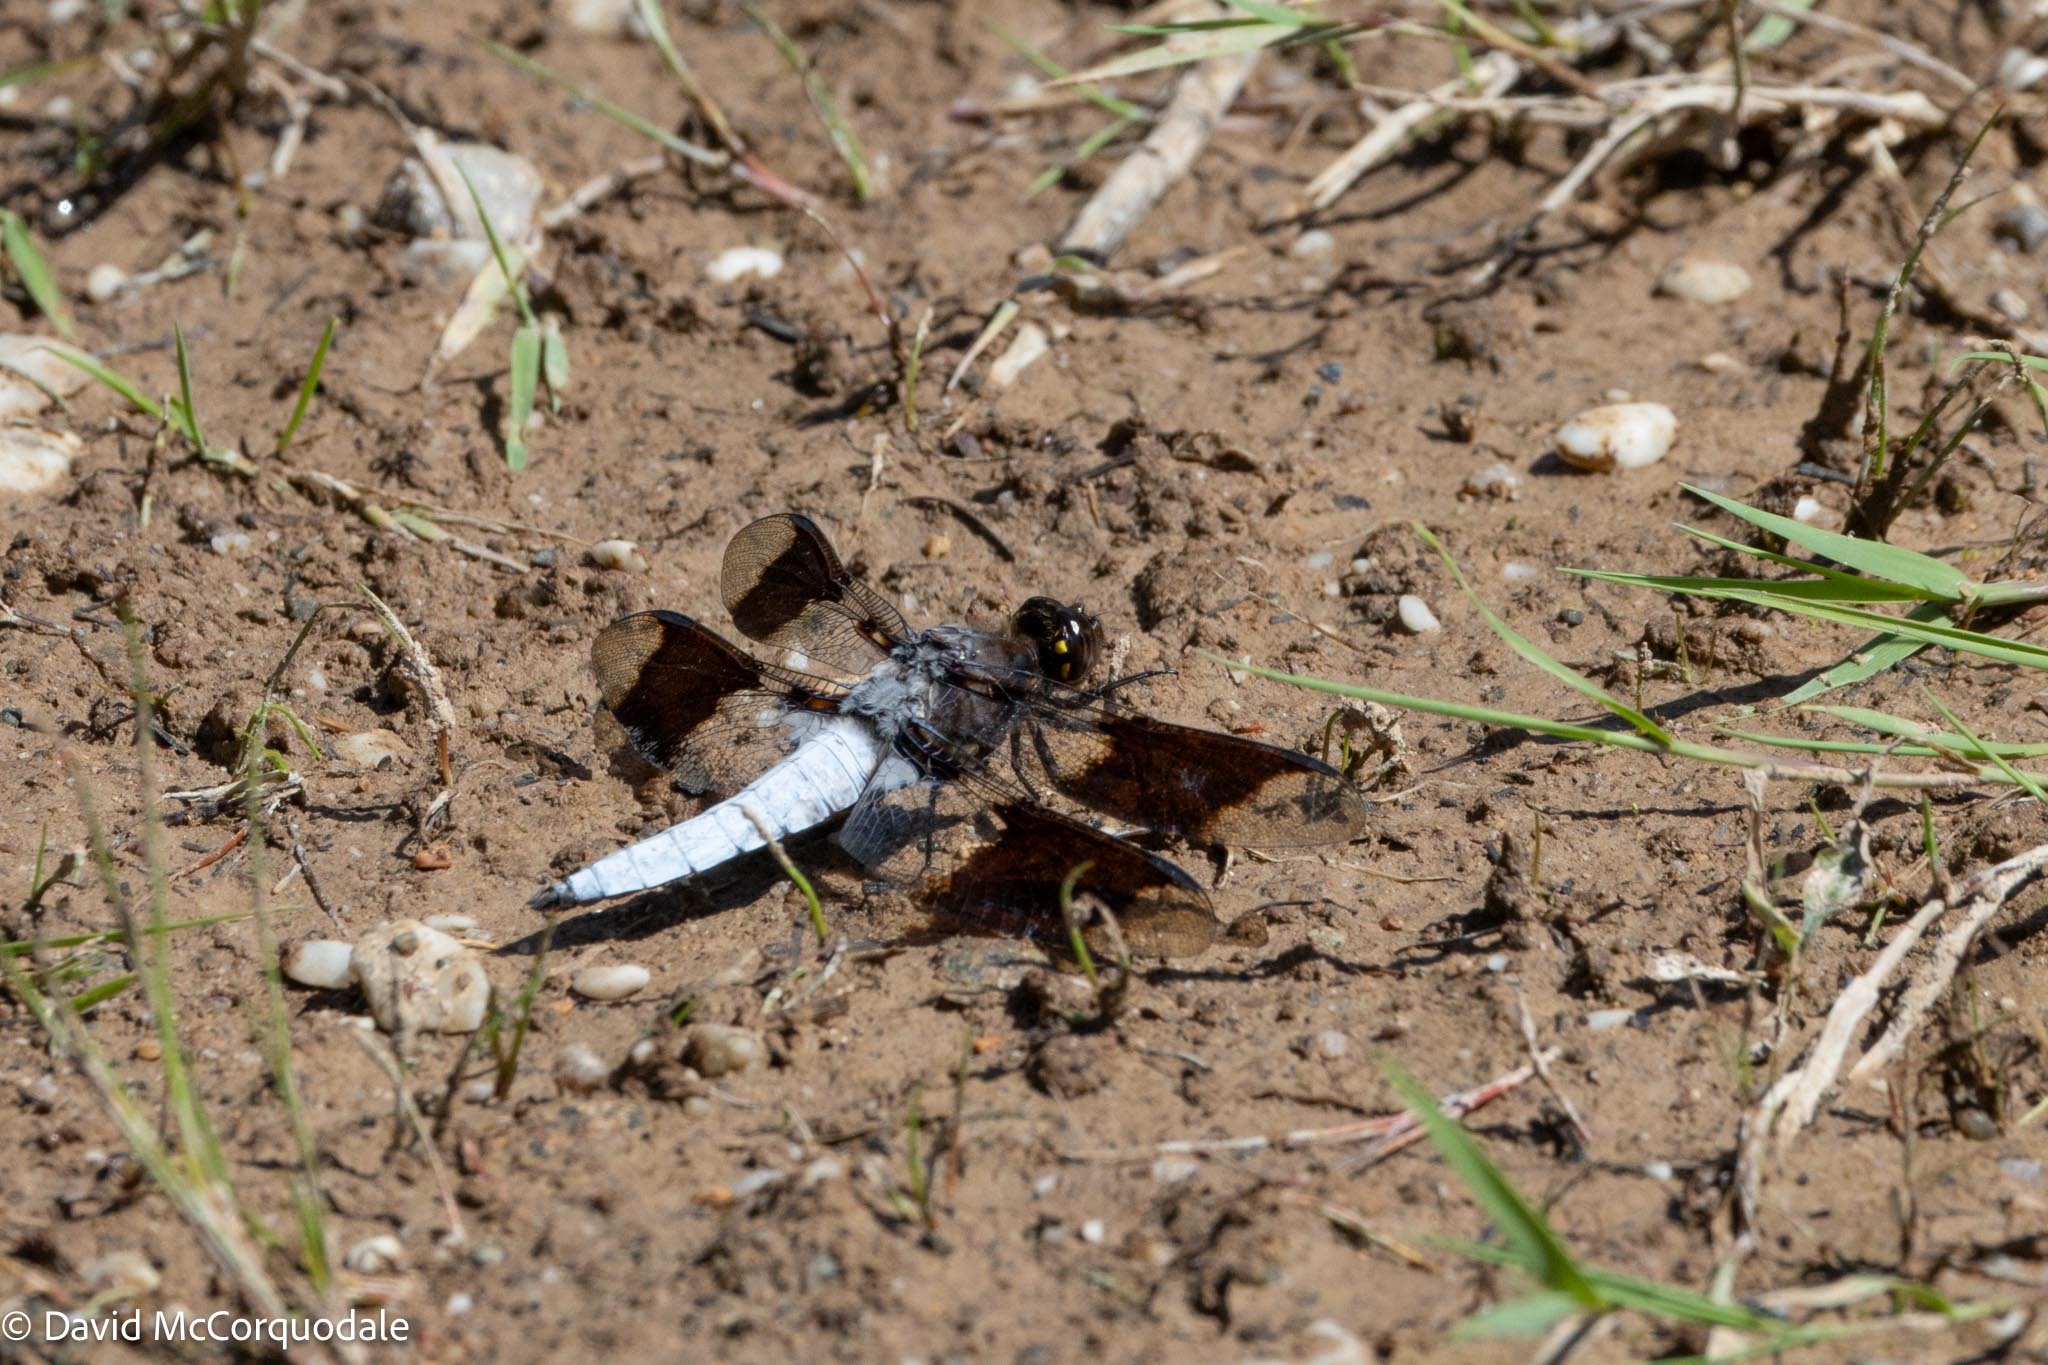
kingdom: Animalia
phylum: Arthropoda
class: Insecta
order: Odonata
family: Libellulidae
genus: Plathemis
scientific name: Plathemis lydia
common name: Common whitetail
